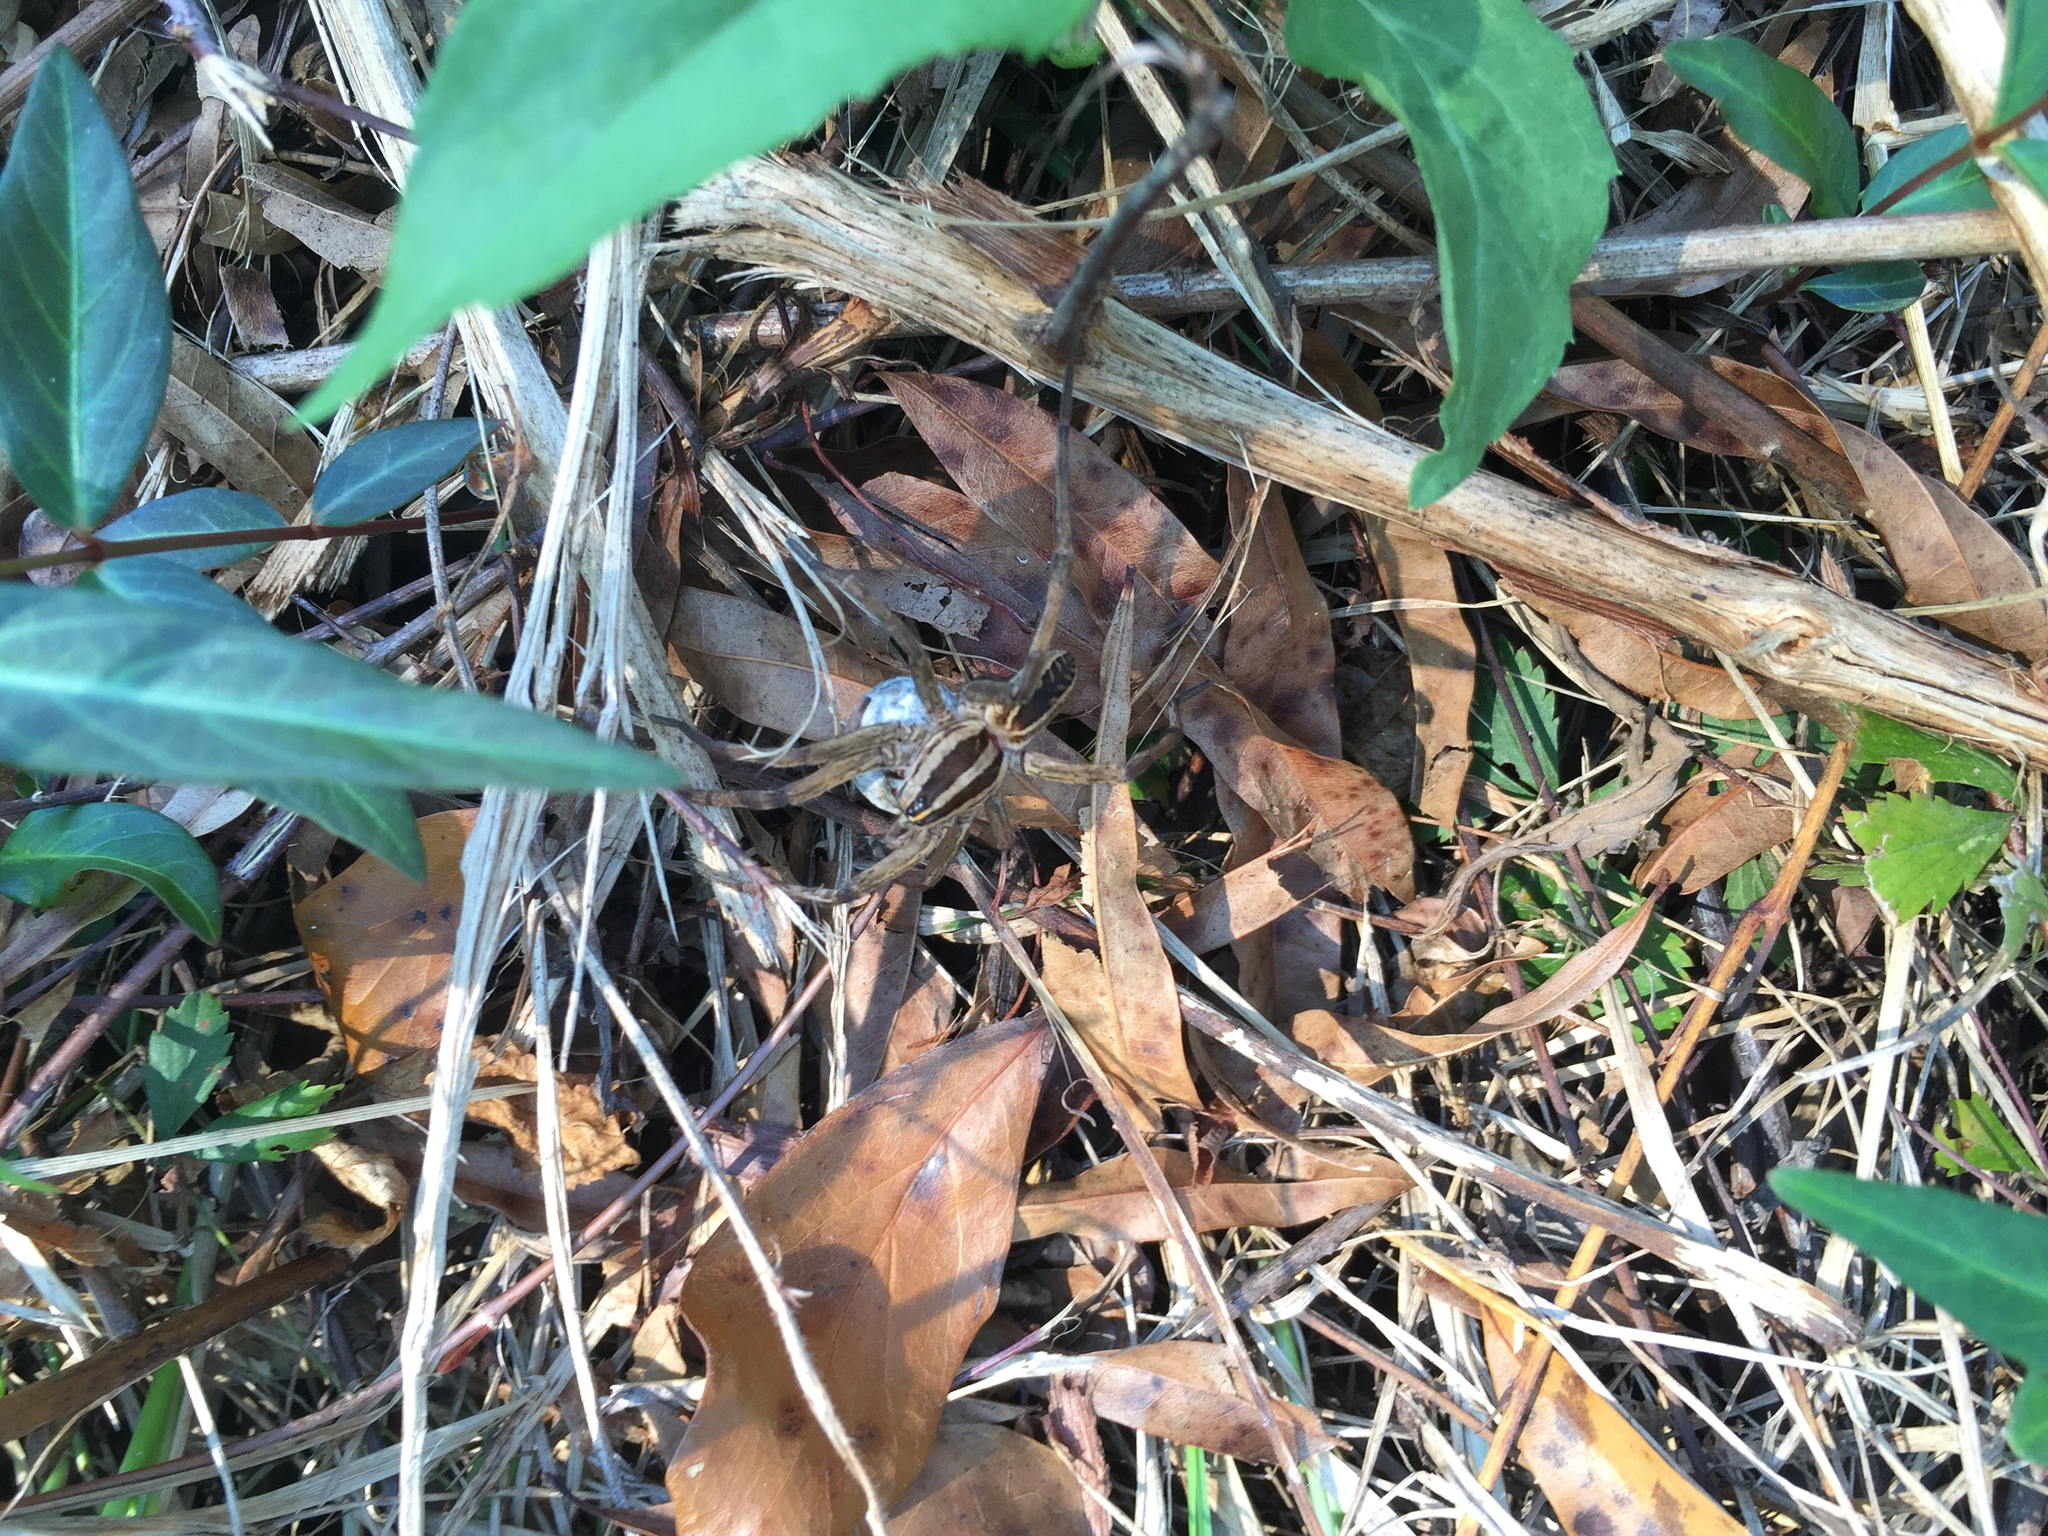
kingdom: Animalia
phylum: Arthropoda
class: Arachnida
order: Araneae
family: Lycosidae
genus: Rabidosa
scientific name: Rabidosa rabida
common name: Rabid wolf spider
